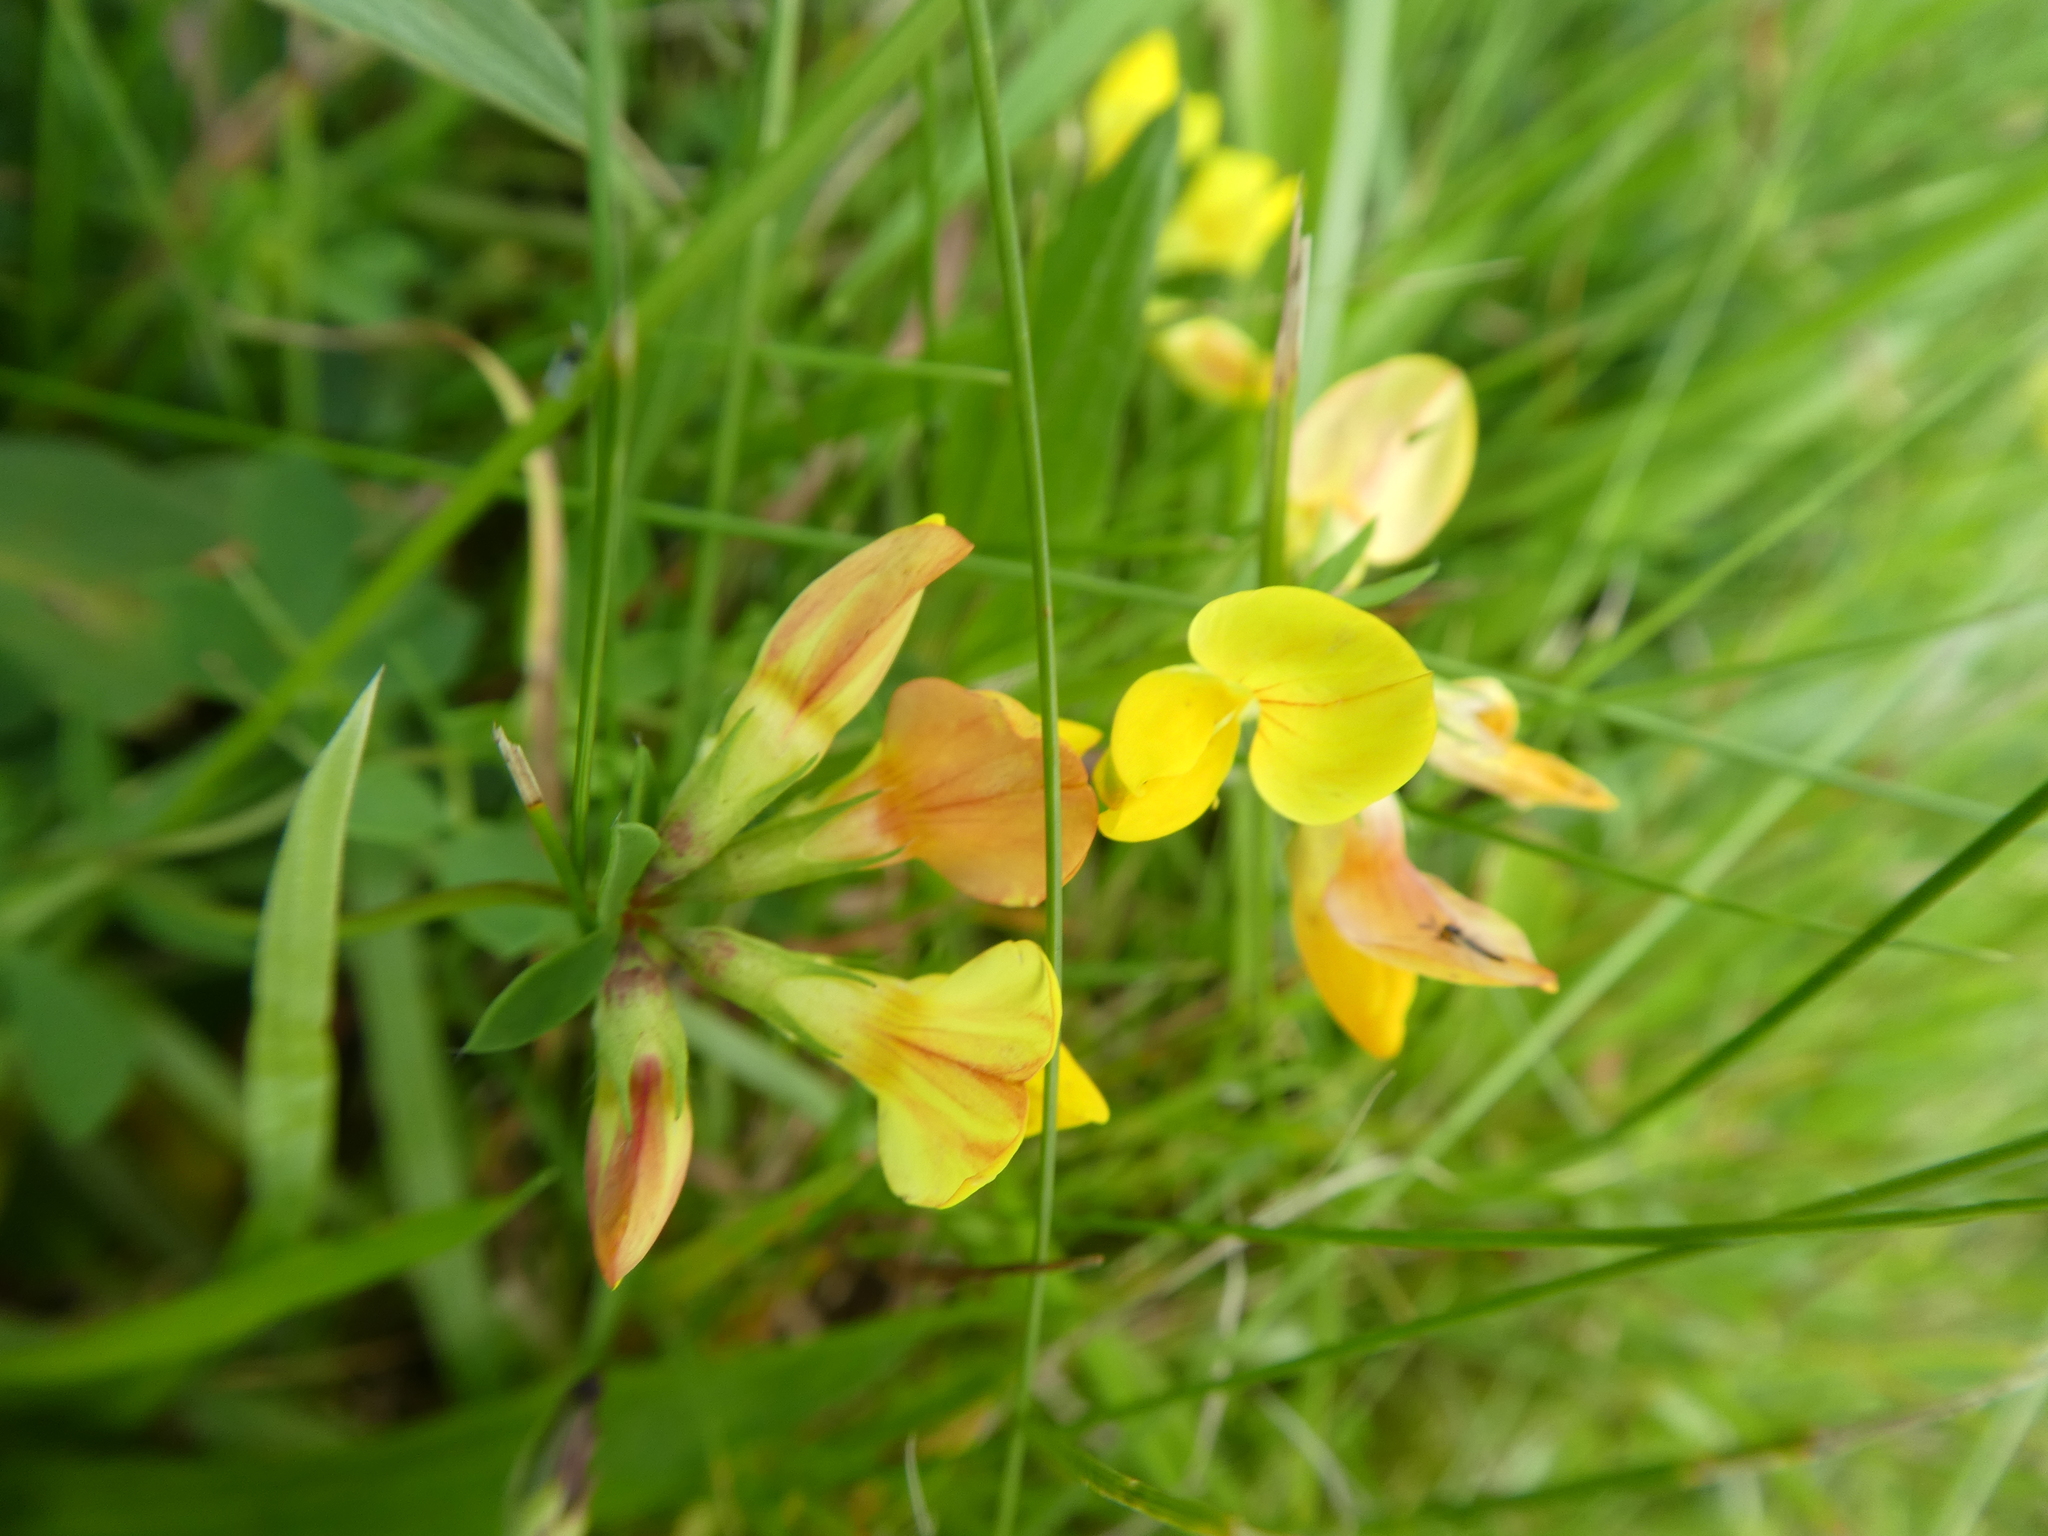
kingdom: Plantae
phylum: Tracheophyta
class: Magnoliopsida
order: Fabales
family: Fabaceae
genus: Lotus
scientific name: Lotus corniculatus
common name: Common bird's-foot-trefoil
